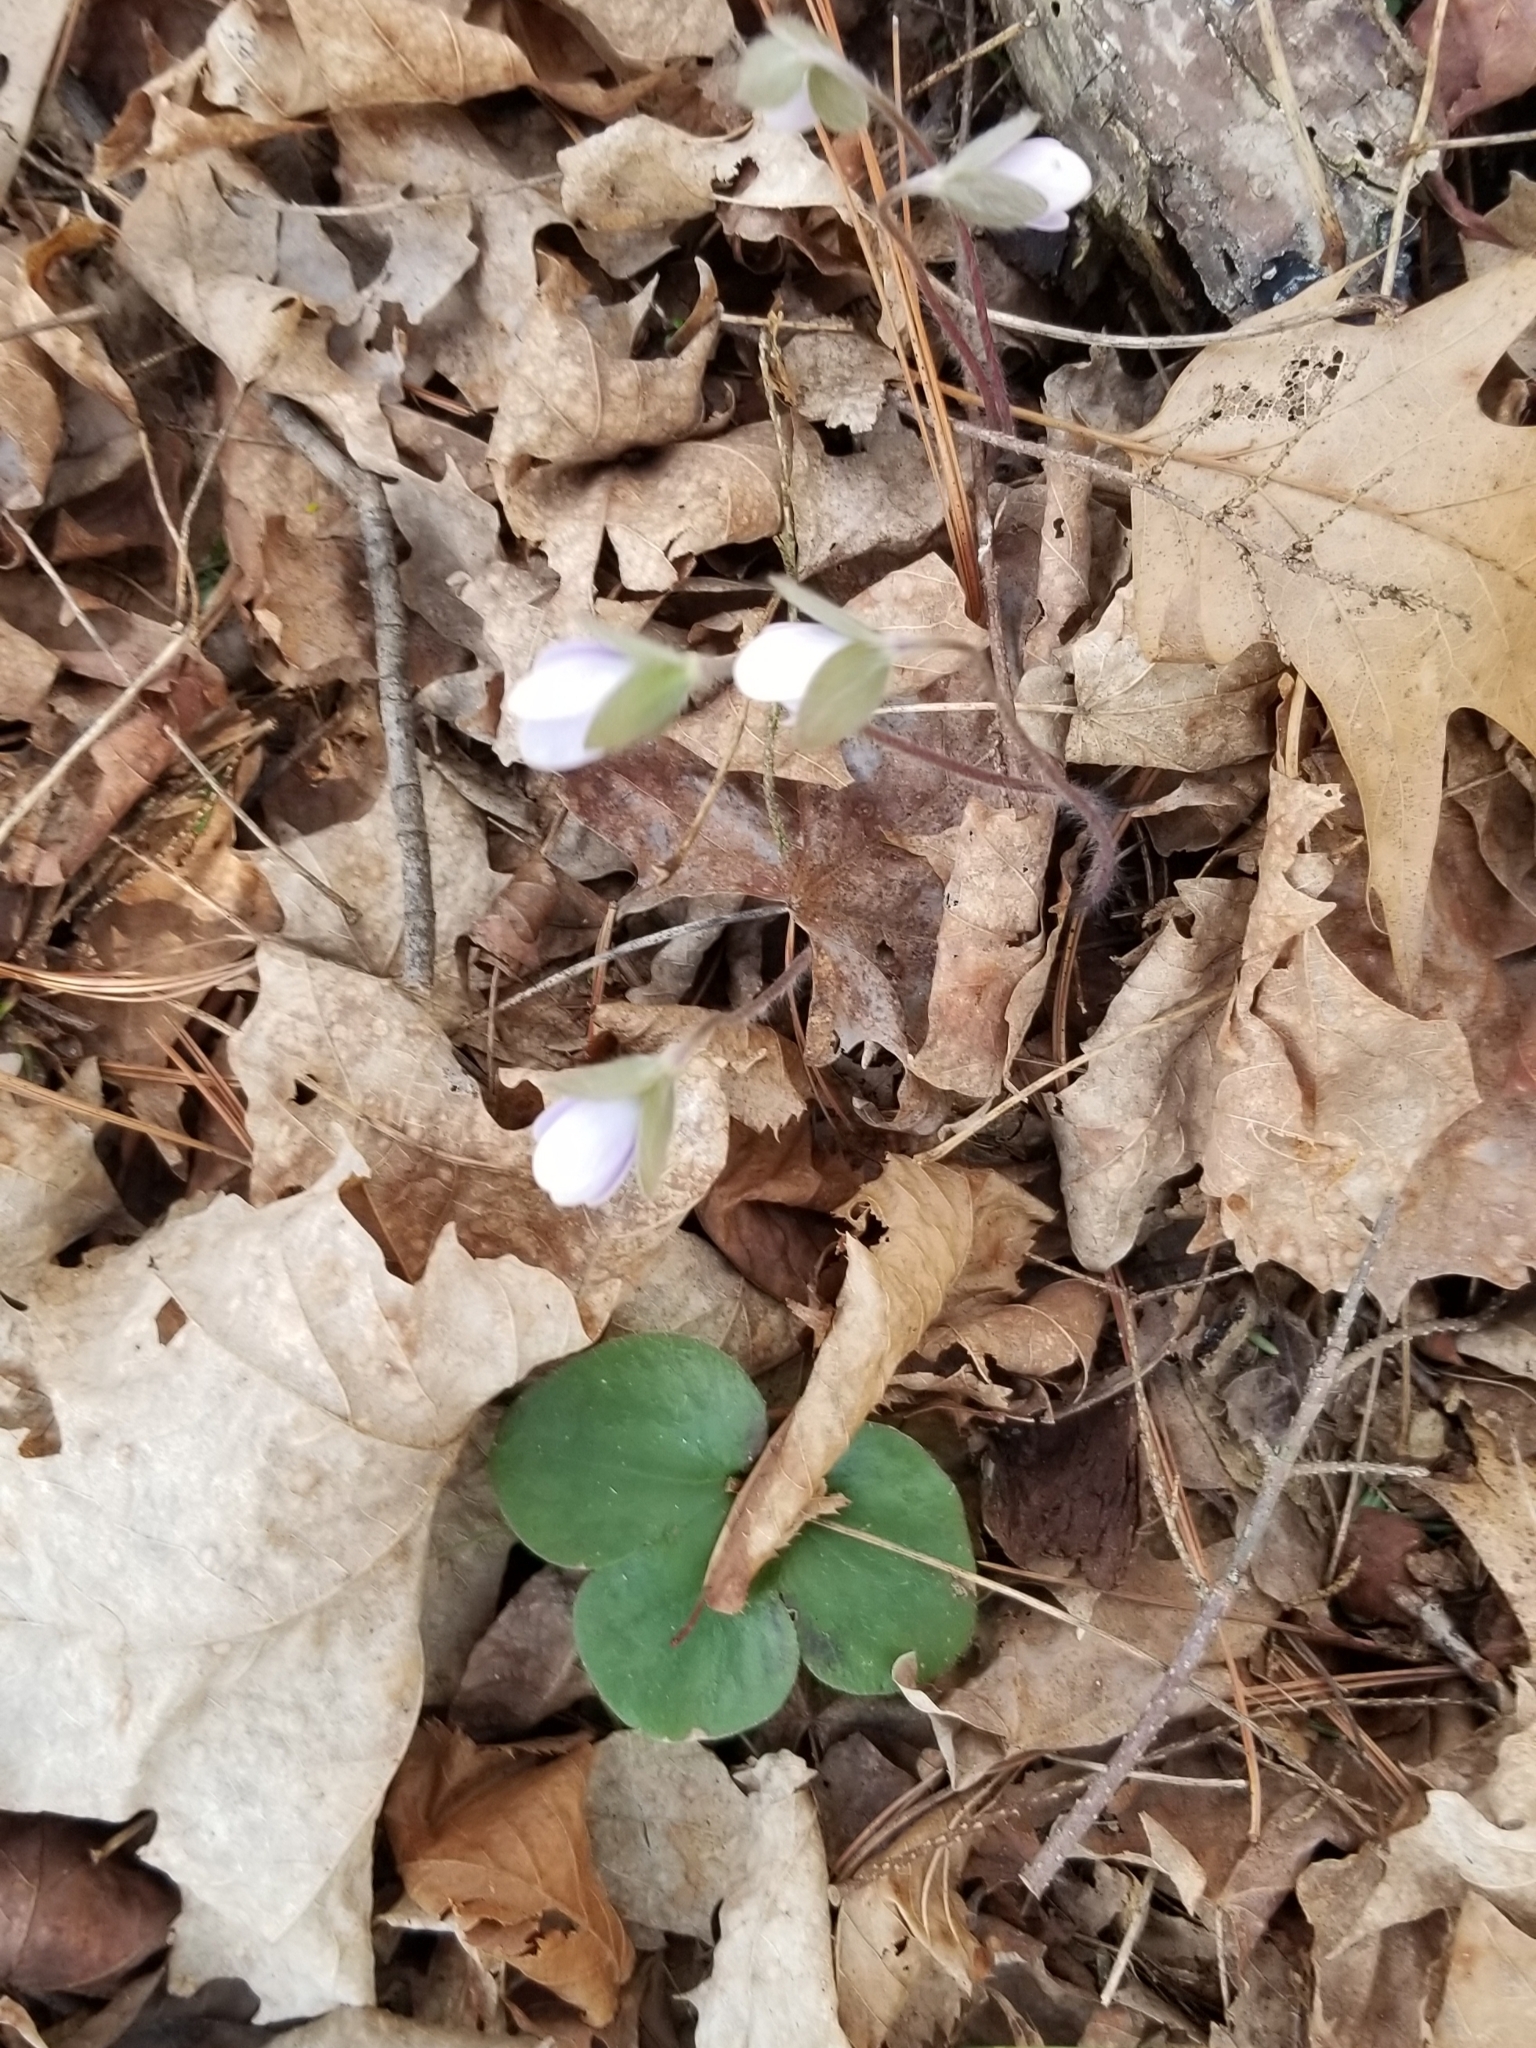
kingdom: Plantae
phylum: Tracheophyta
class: Magnoliopsida
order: Ranunculales
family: Ranunculaceae
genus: Hepatica
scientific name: Hepatica americana
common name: American hepatica
